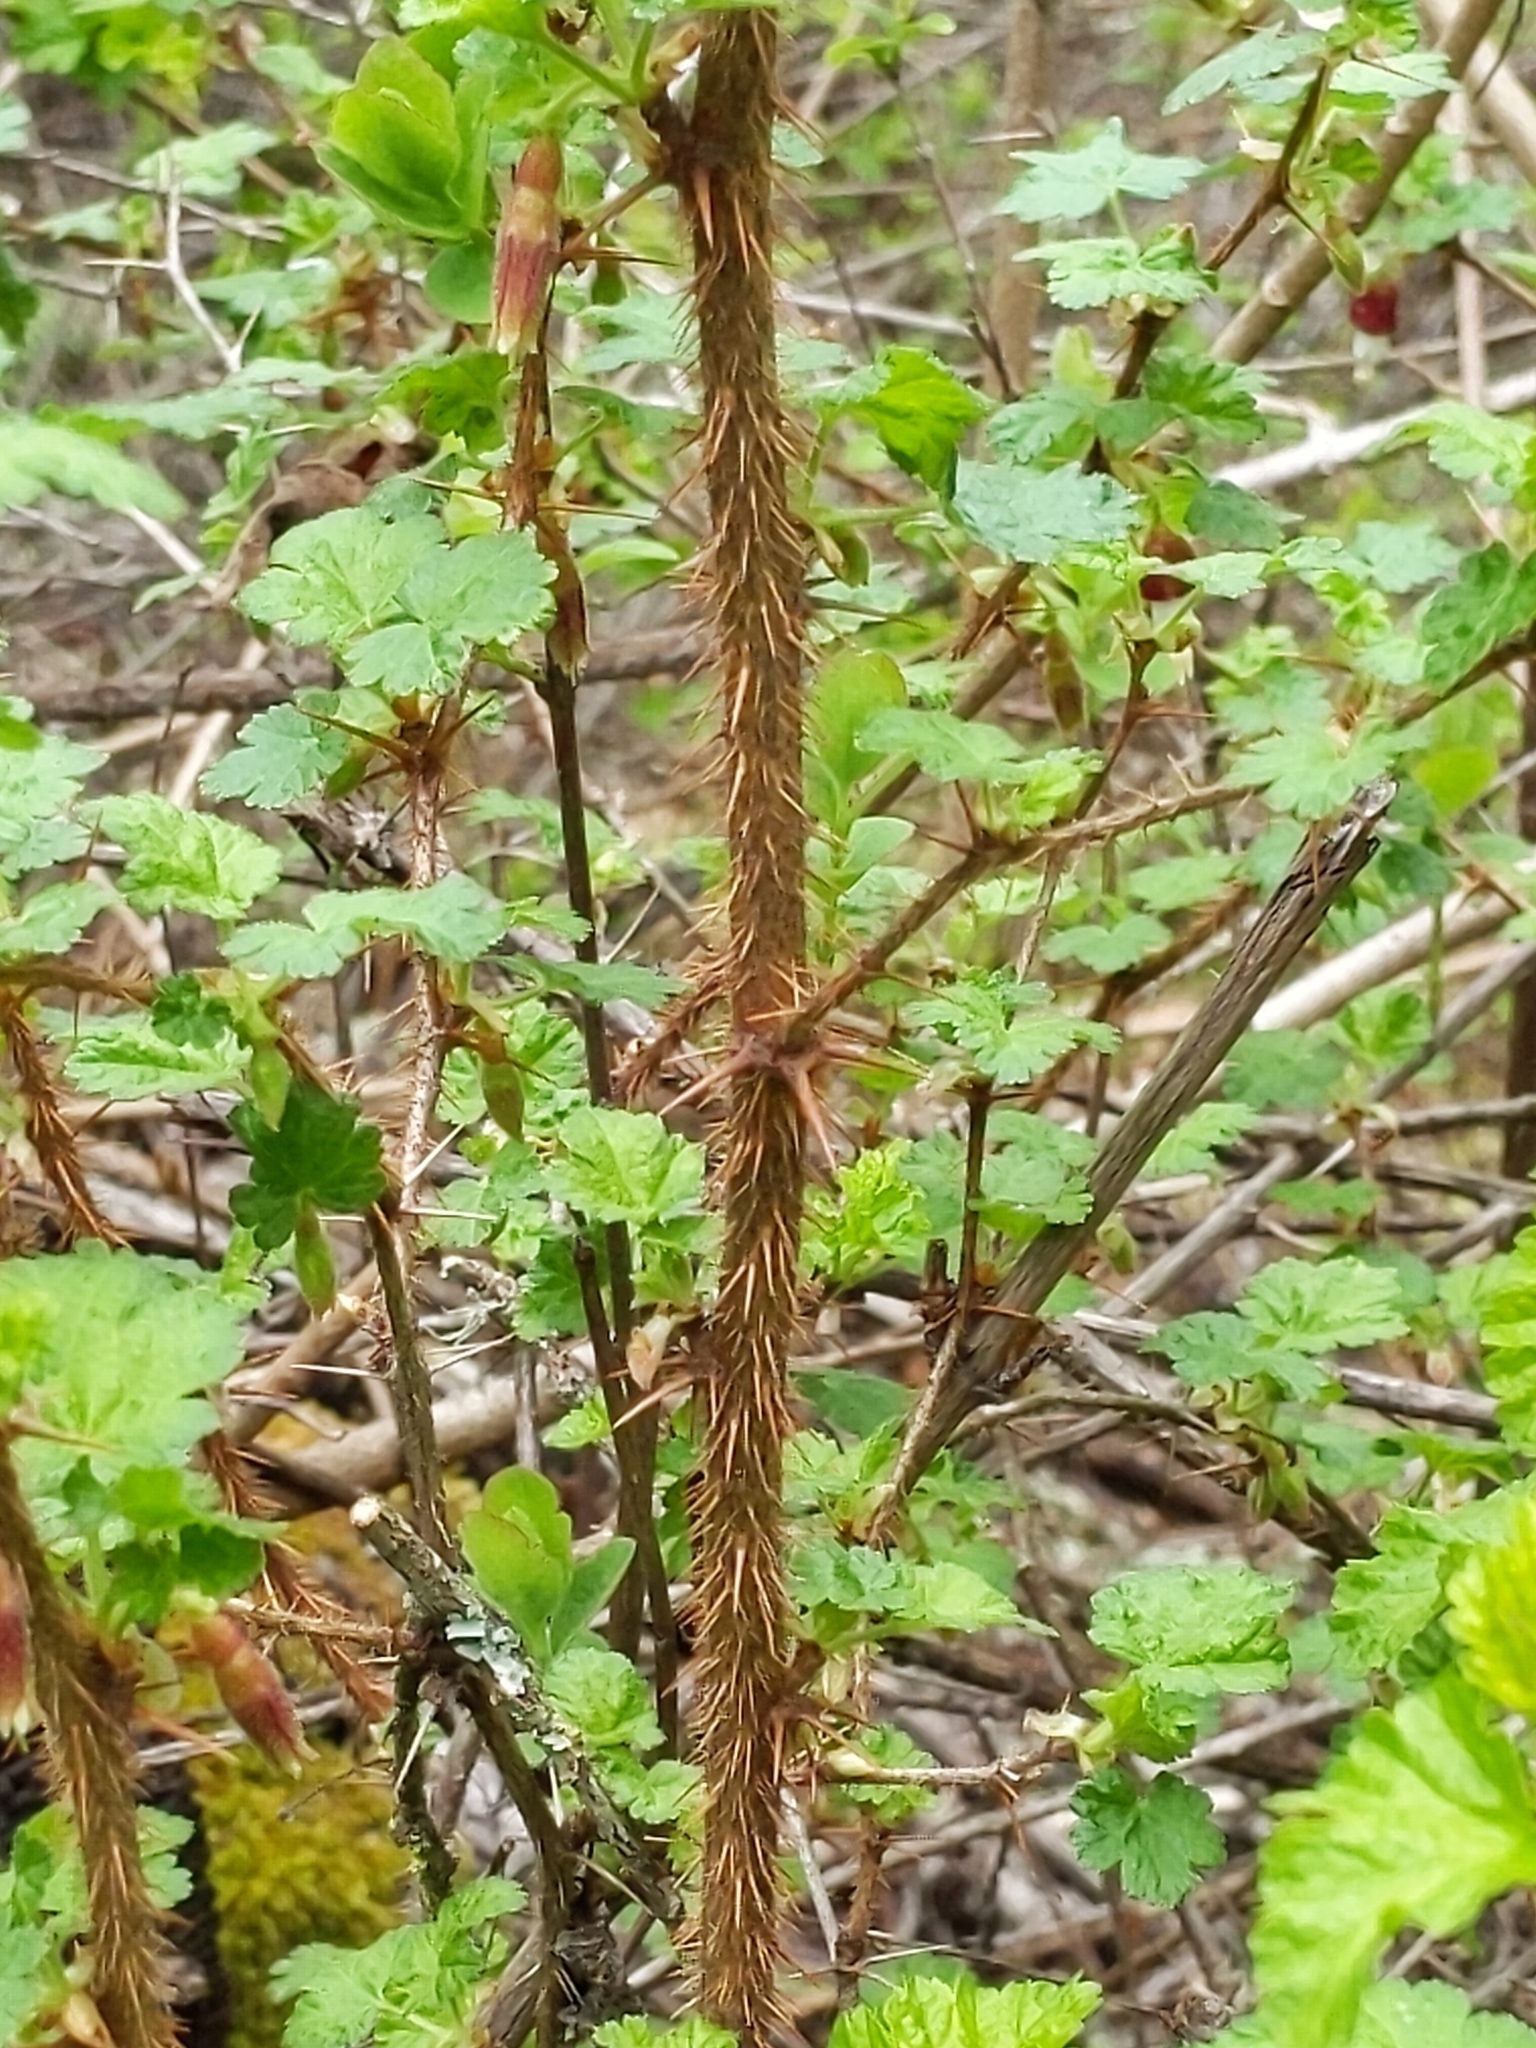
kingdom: Plantae
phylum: Tracheophyta
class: Magnoliopsida
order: Saxifragales
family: Grossulariaceae
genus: Ribes
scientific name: Ribes menziesii
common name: Canyon gooseberry
